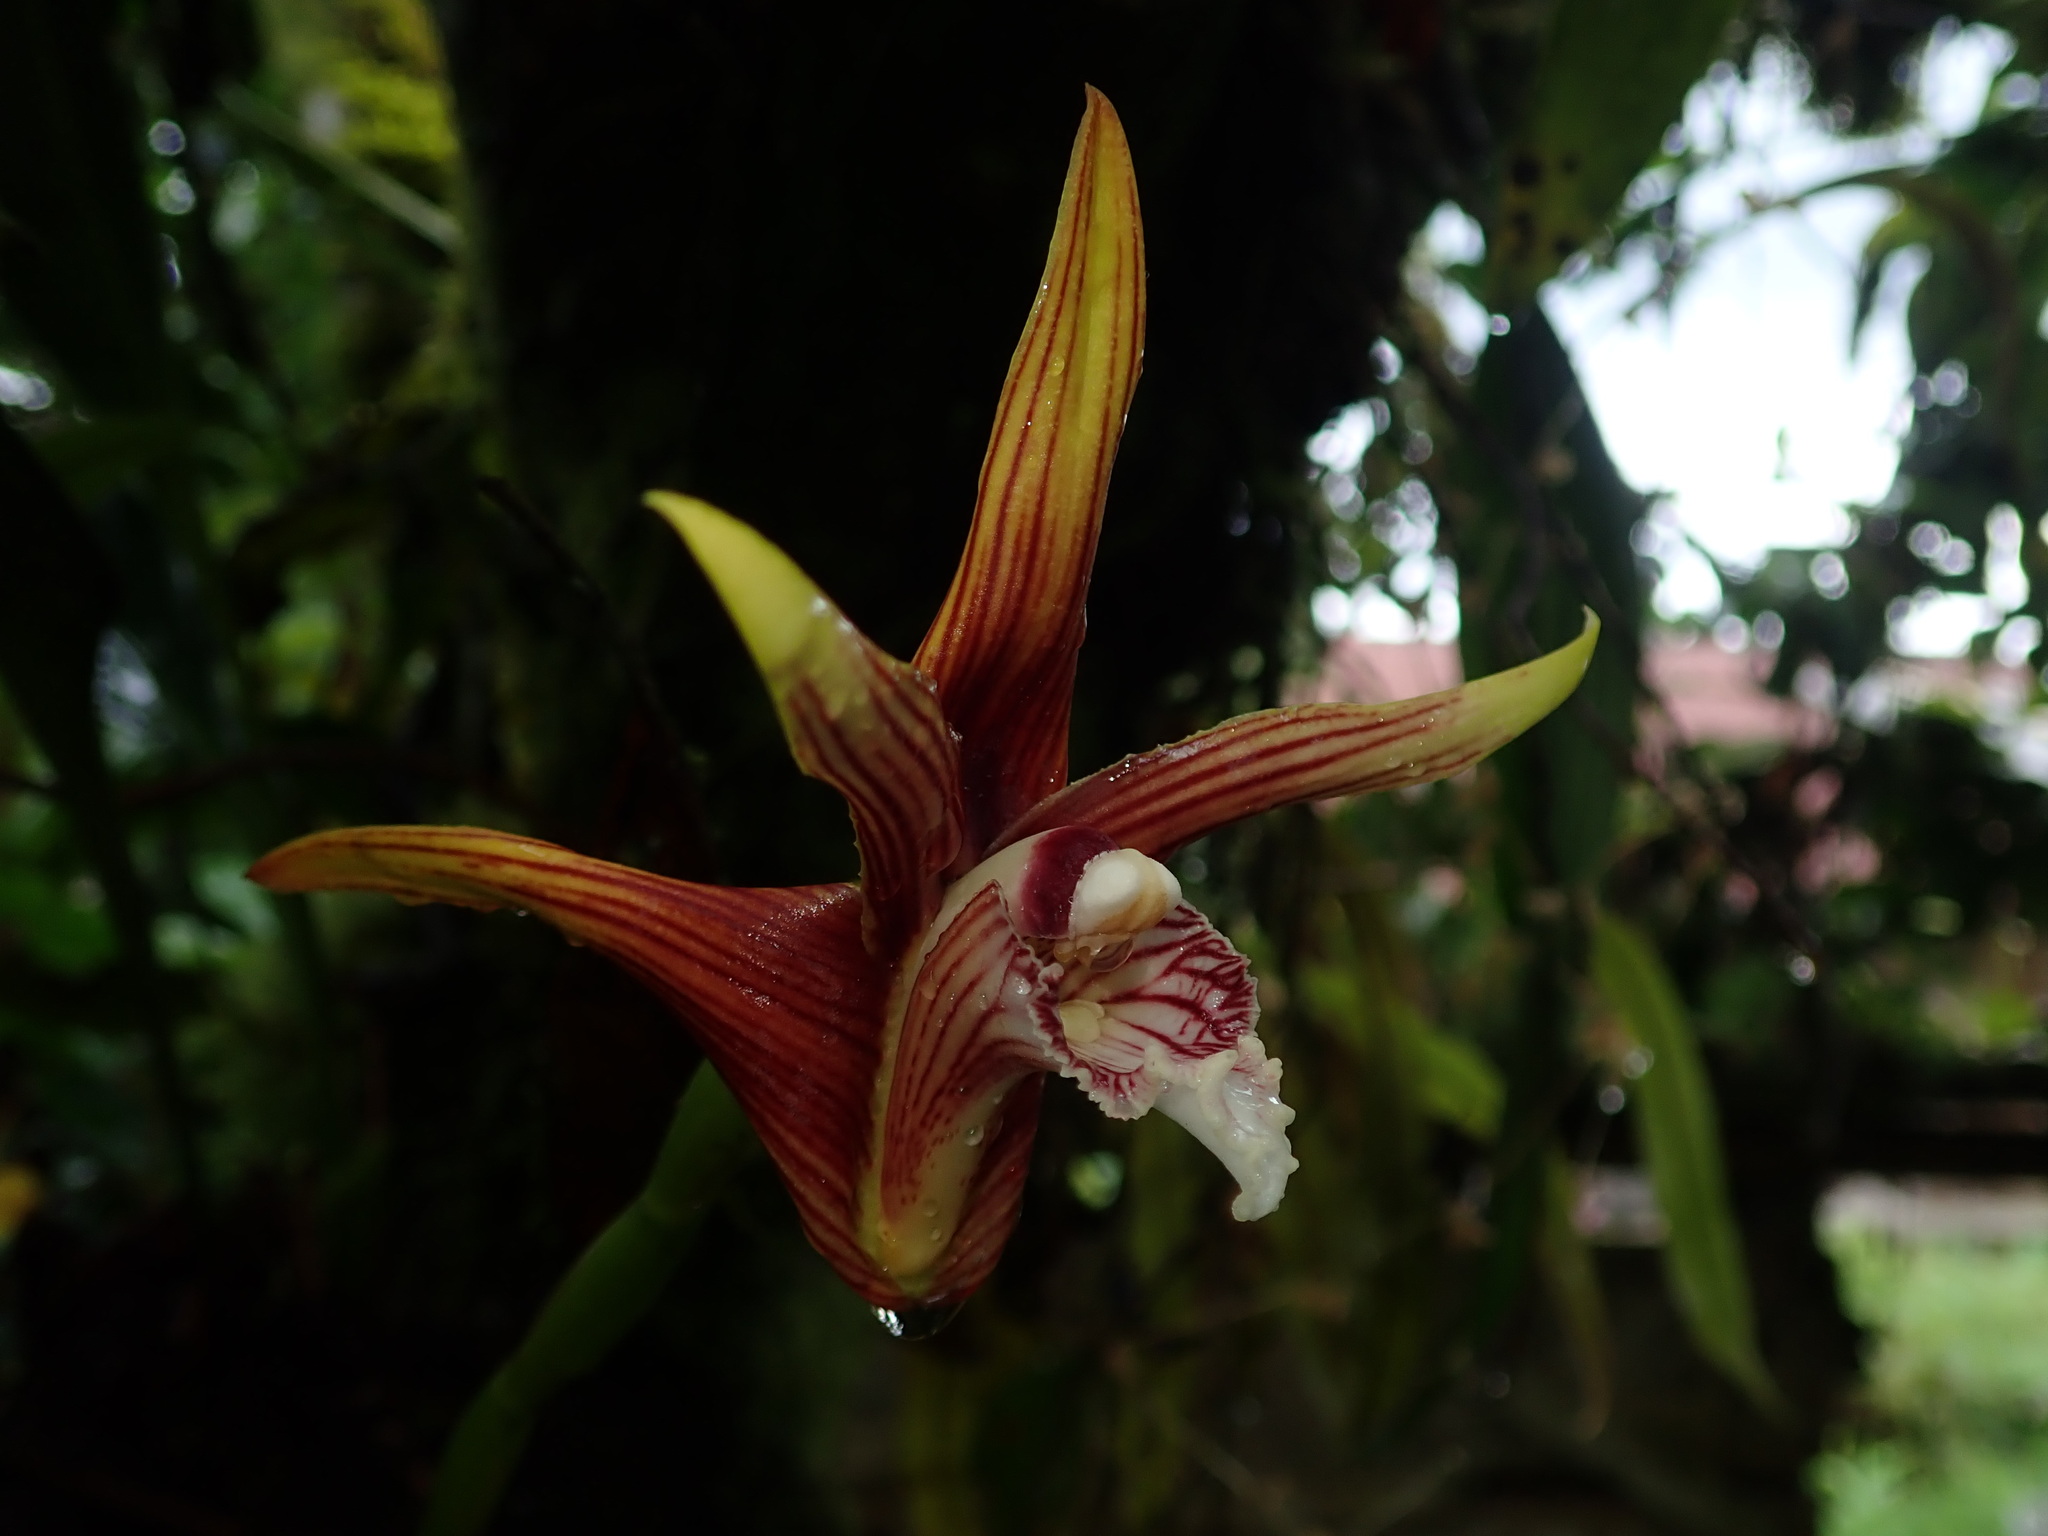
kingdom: Plantae
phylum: Tracheophyta
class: Liliopsida
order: Asparagales
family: Orchidaceae
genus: Maxillaria
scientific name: Maxillaria striata
